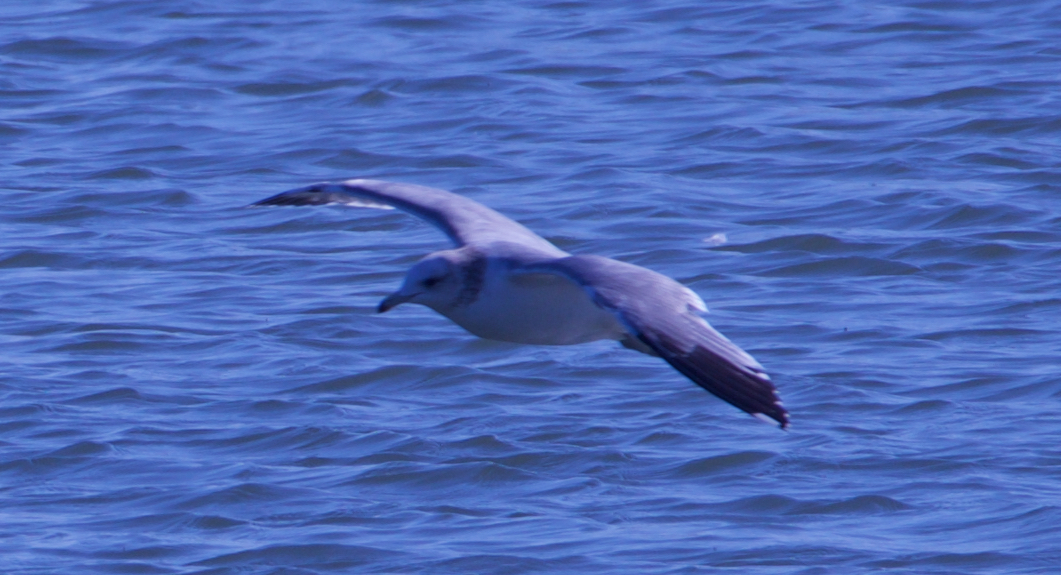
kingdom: Animalia
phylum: Chordata
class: Aves
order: Charadriiformes
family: Laridae
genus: Larus
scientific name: Larus californicus
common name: California gull
